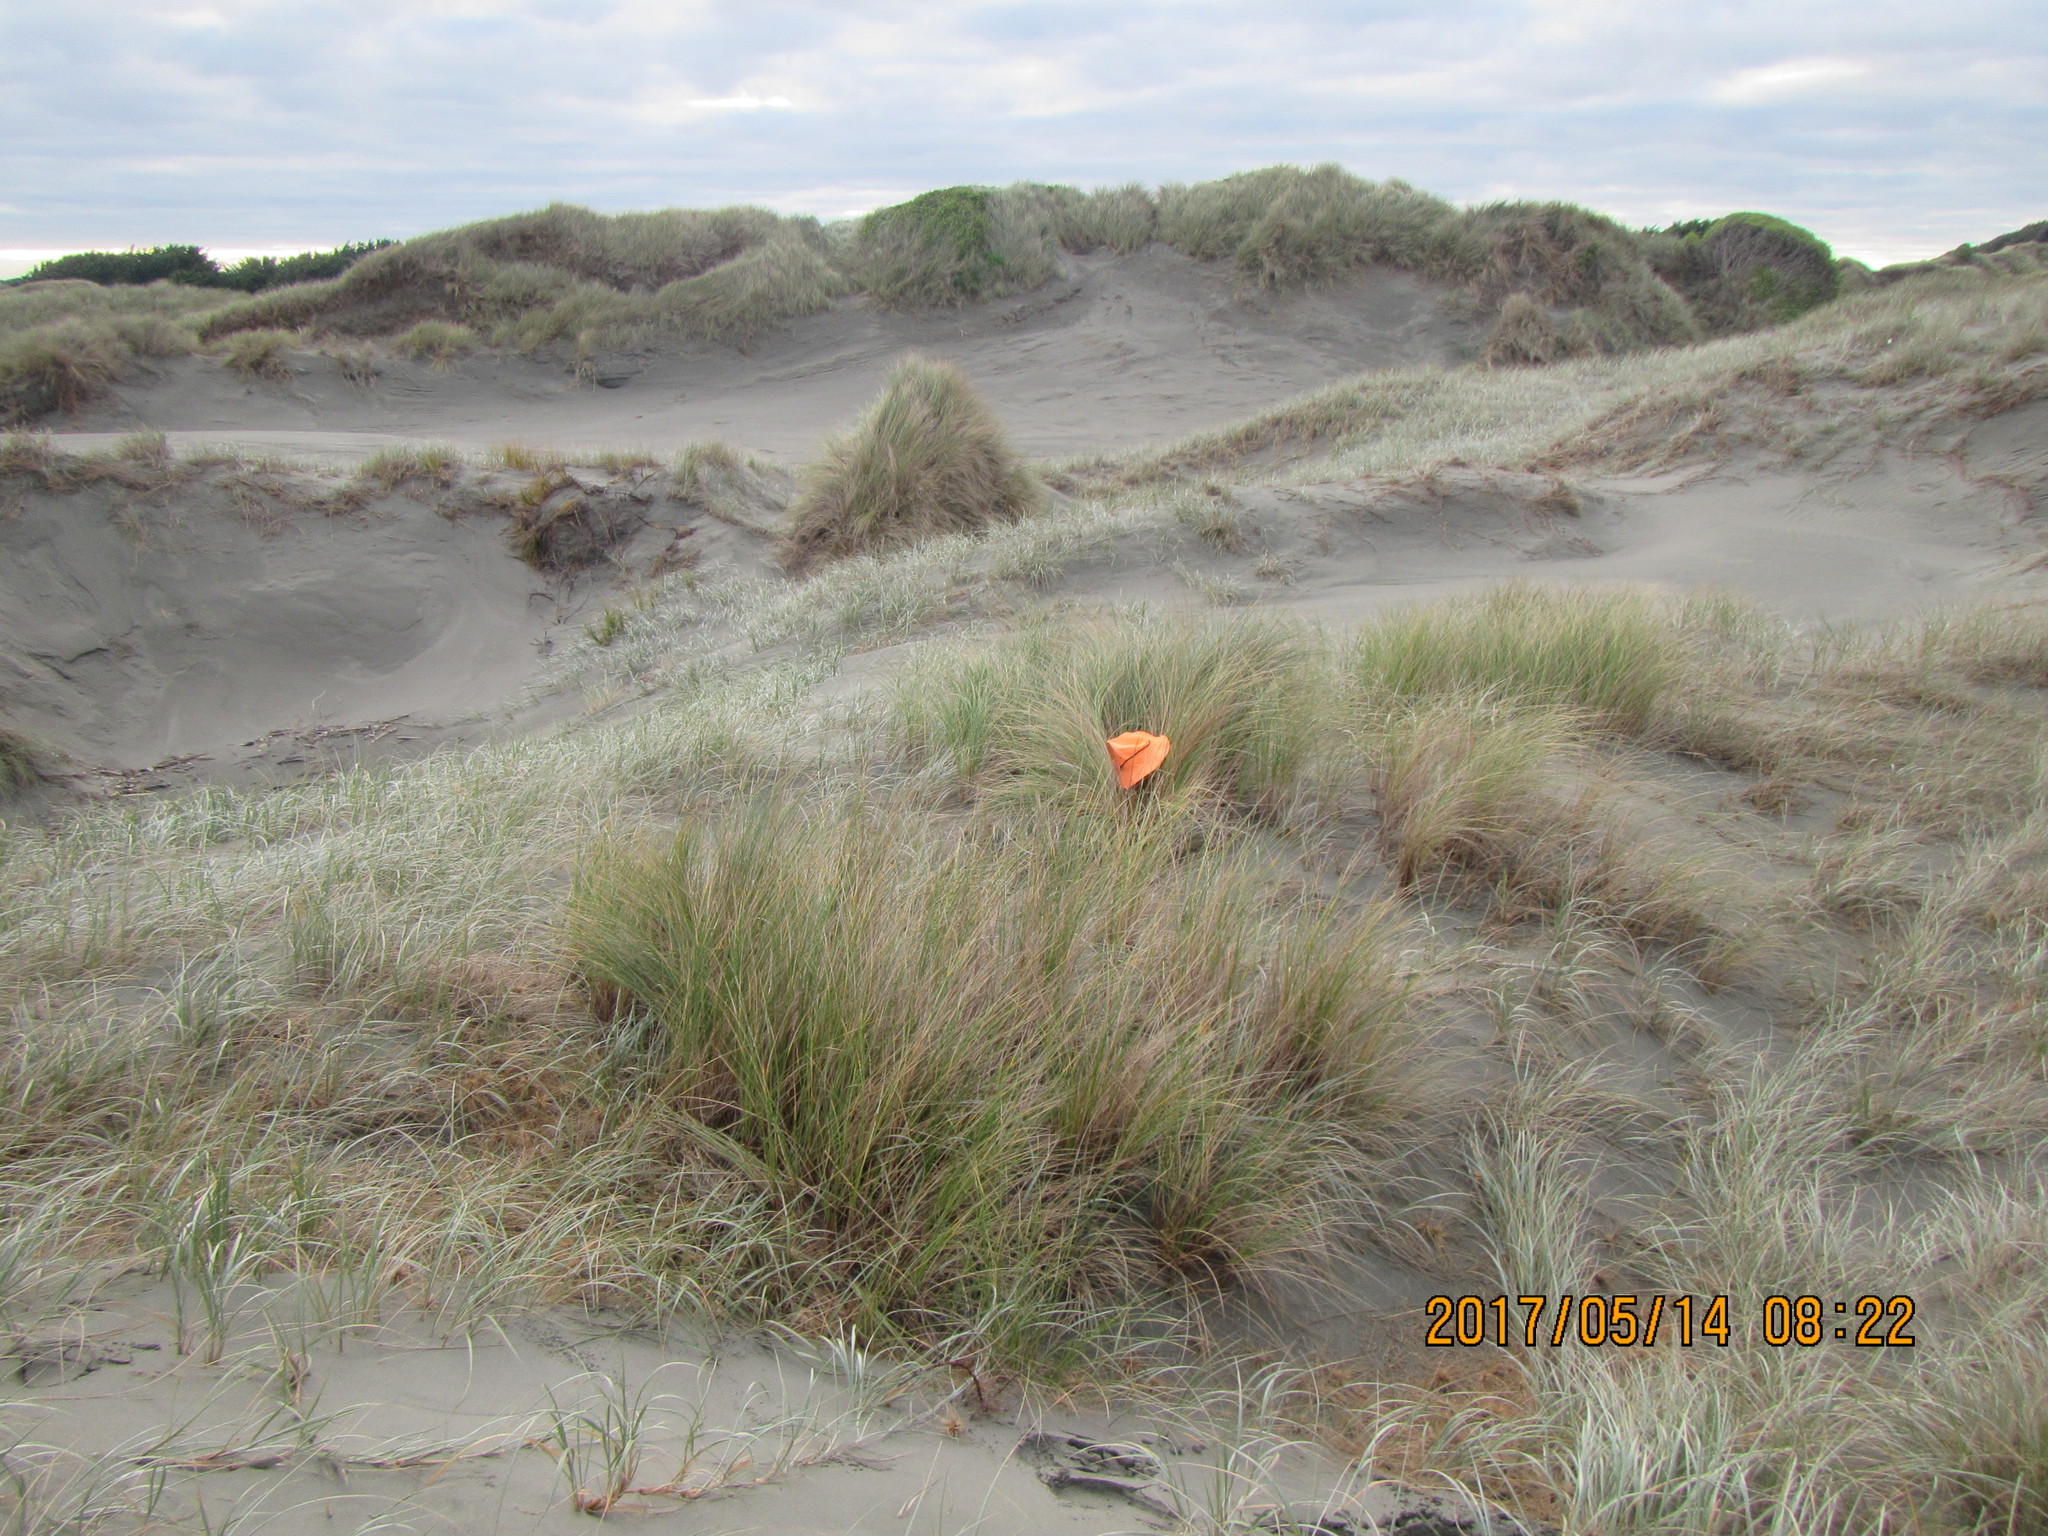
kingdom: Animalia
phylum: Arthropoda
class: Insecta
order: Dermaptera
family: Forficulidae
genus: Forficula
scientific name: Forficula
